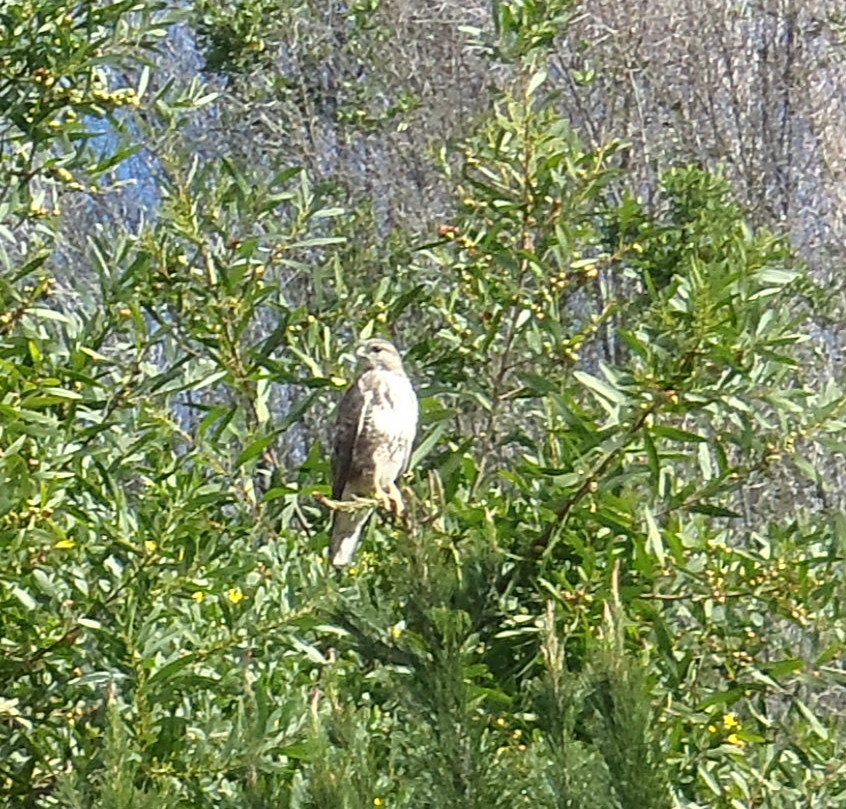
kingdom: Animalia
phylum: Chordata
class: Aves
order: Accipitriformes
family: Accipitridae
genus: Buteo
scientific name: Buteo trizonatus
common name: Forest buzzard
